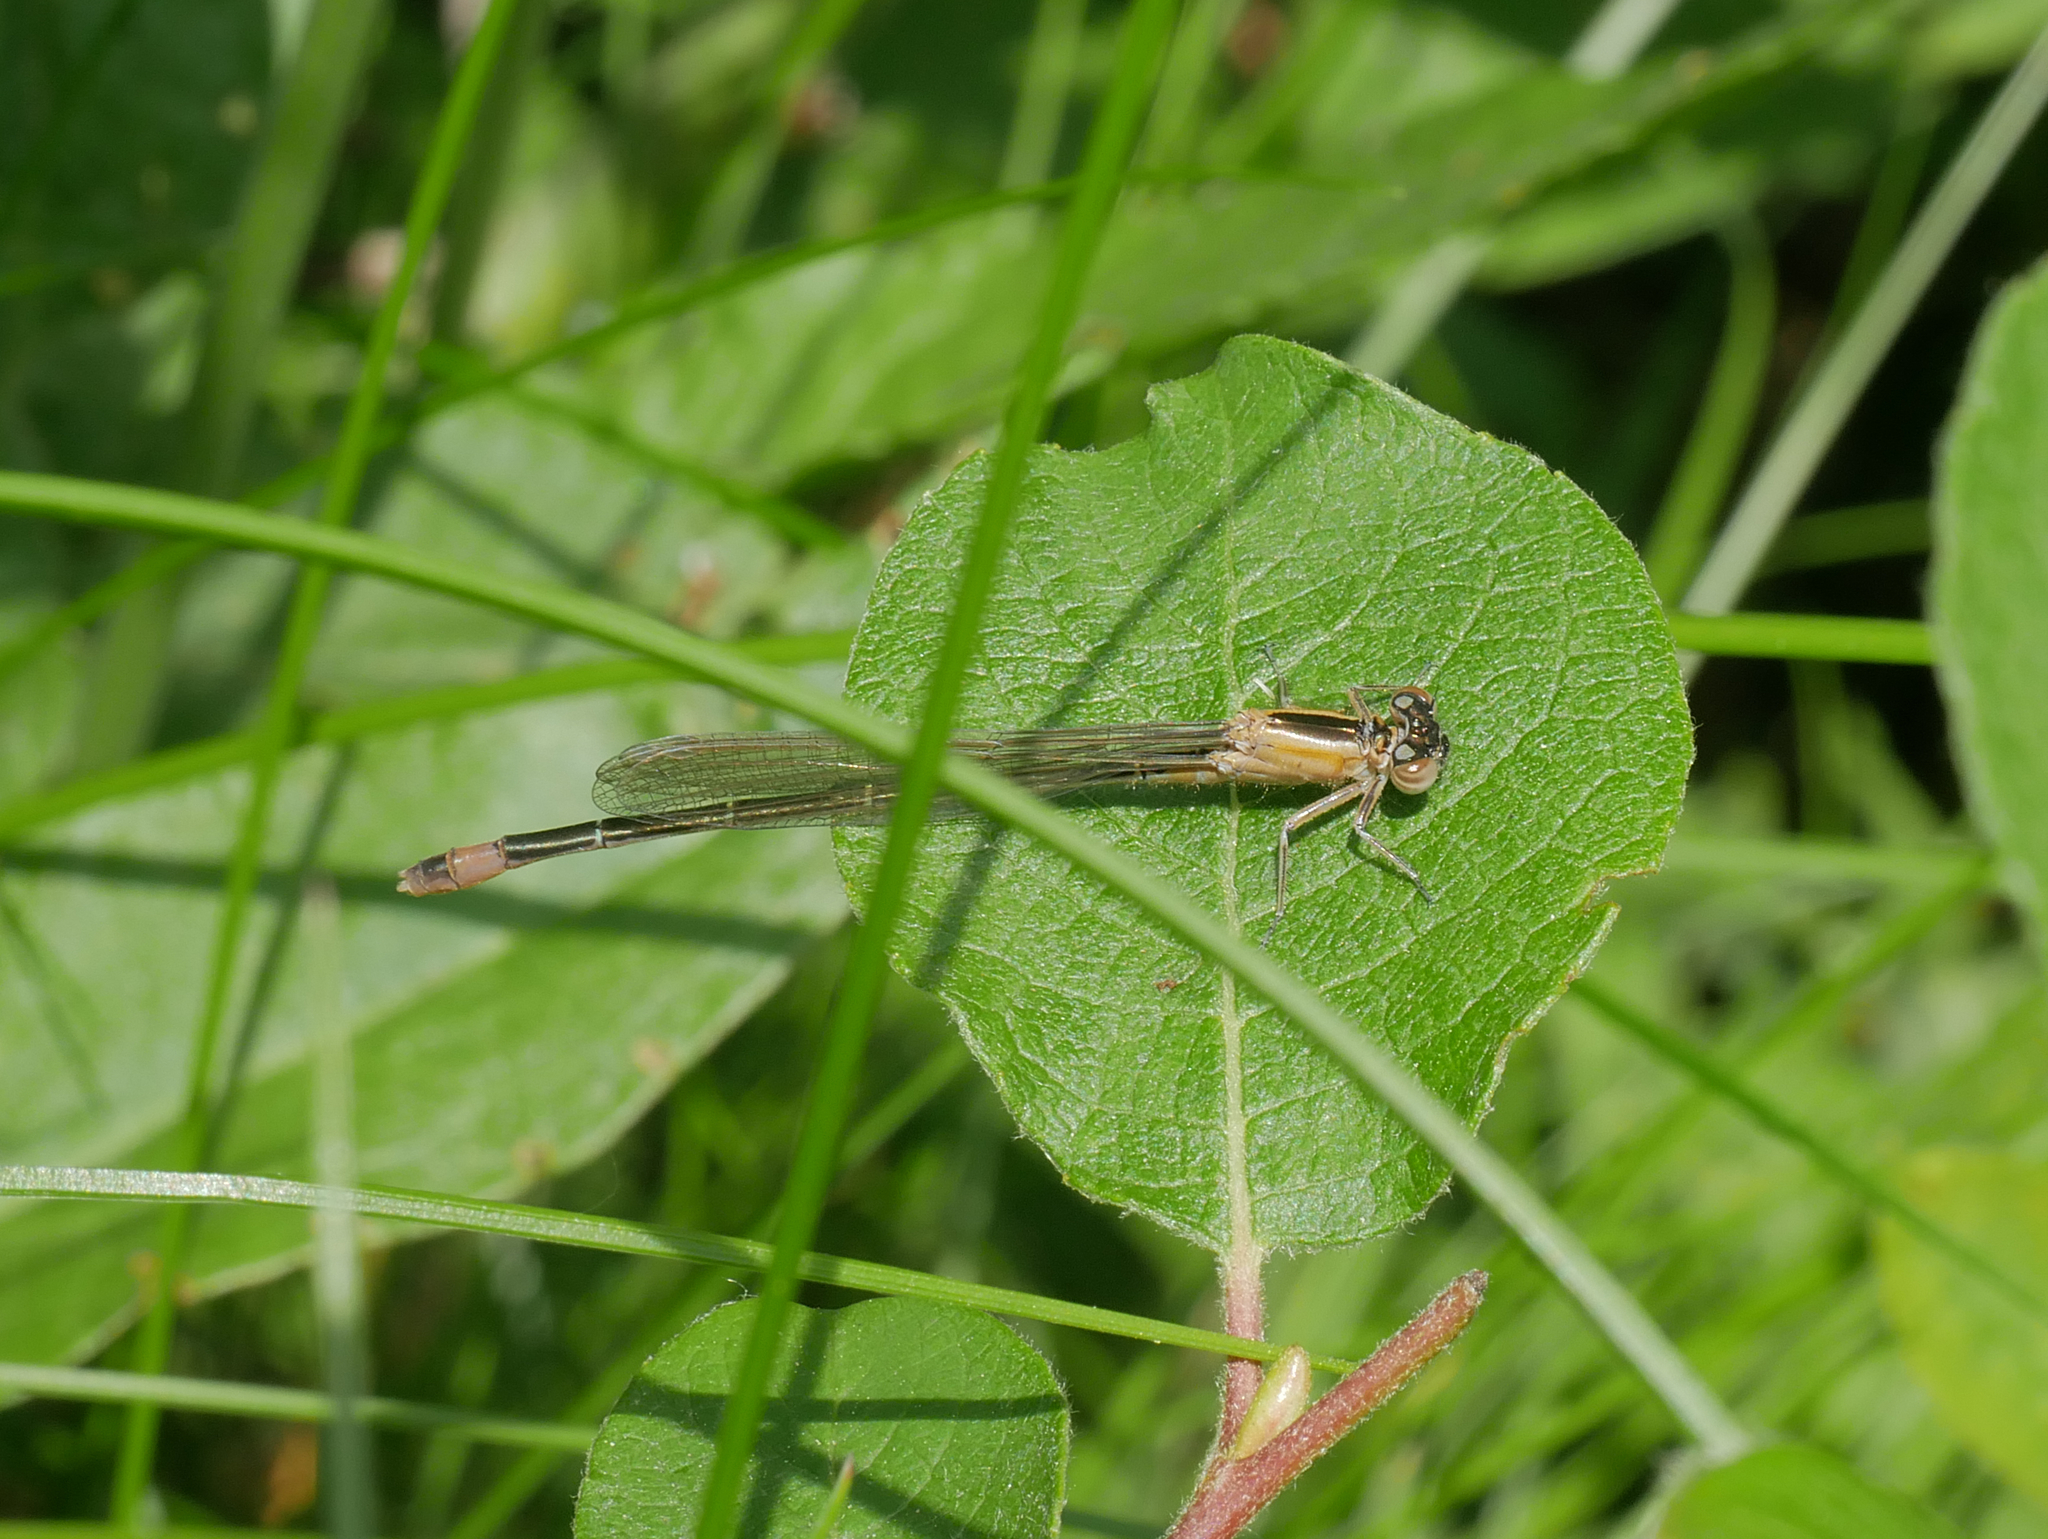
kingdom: Animalia
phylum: Arthropoda
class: Insecta
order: Odonata
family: Coenagrionidae
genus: Ischnura
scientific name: Ischnura elegans
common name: Blue-tailed damselfly
